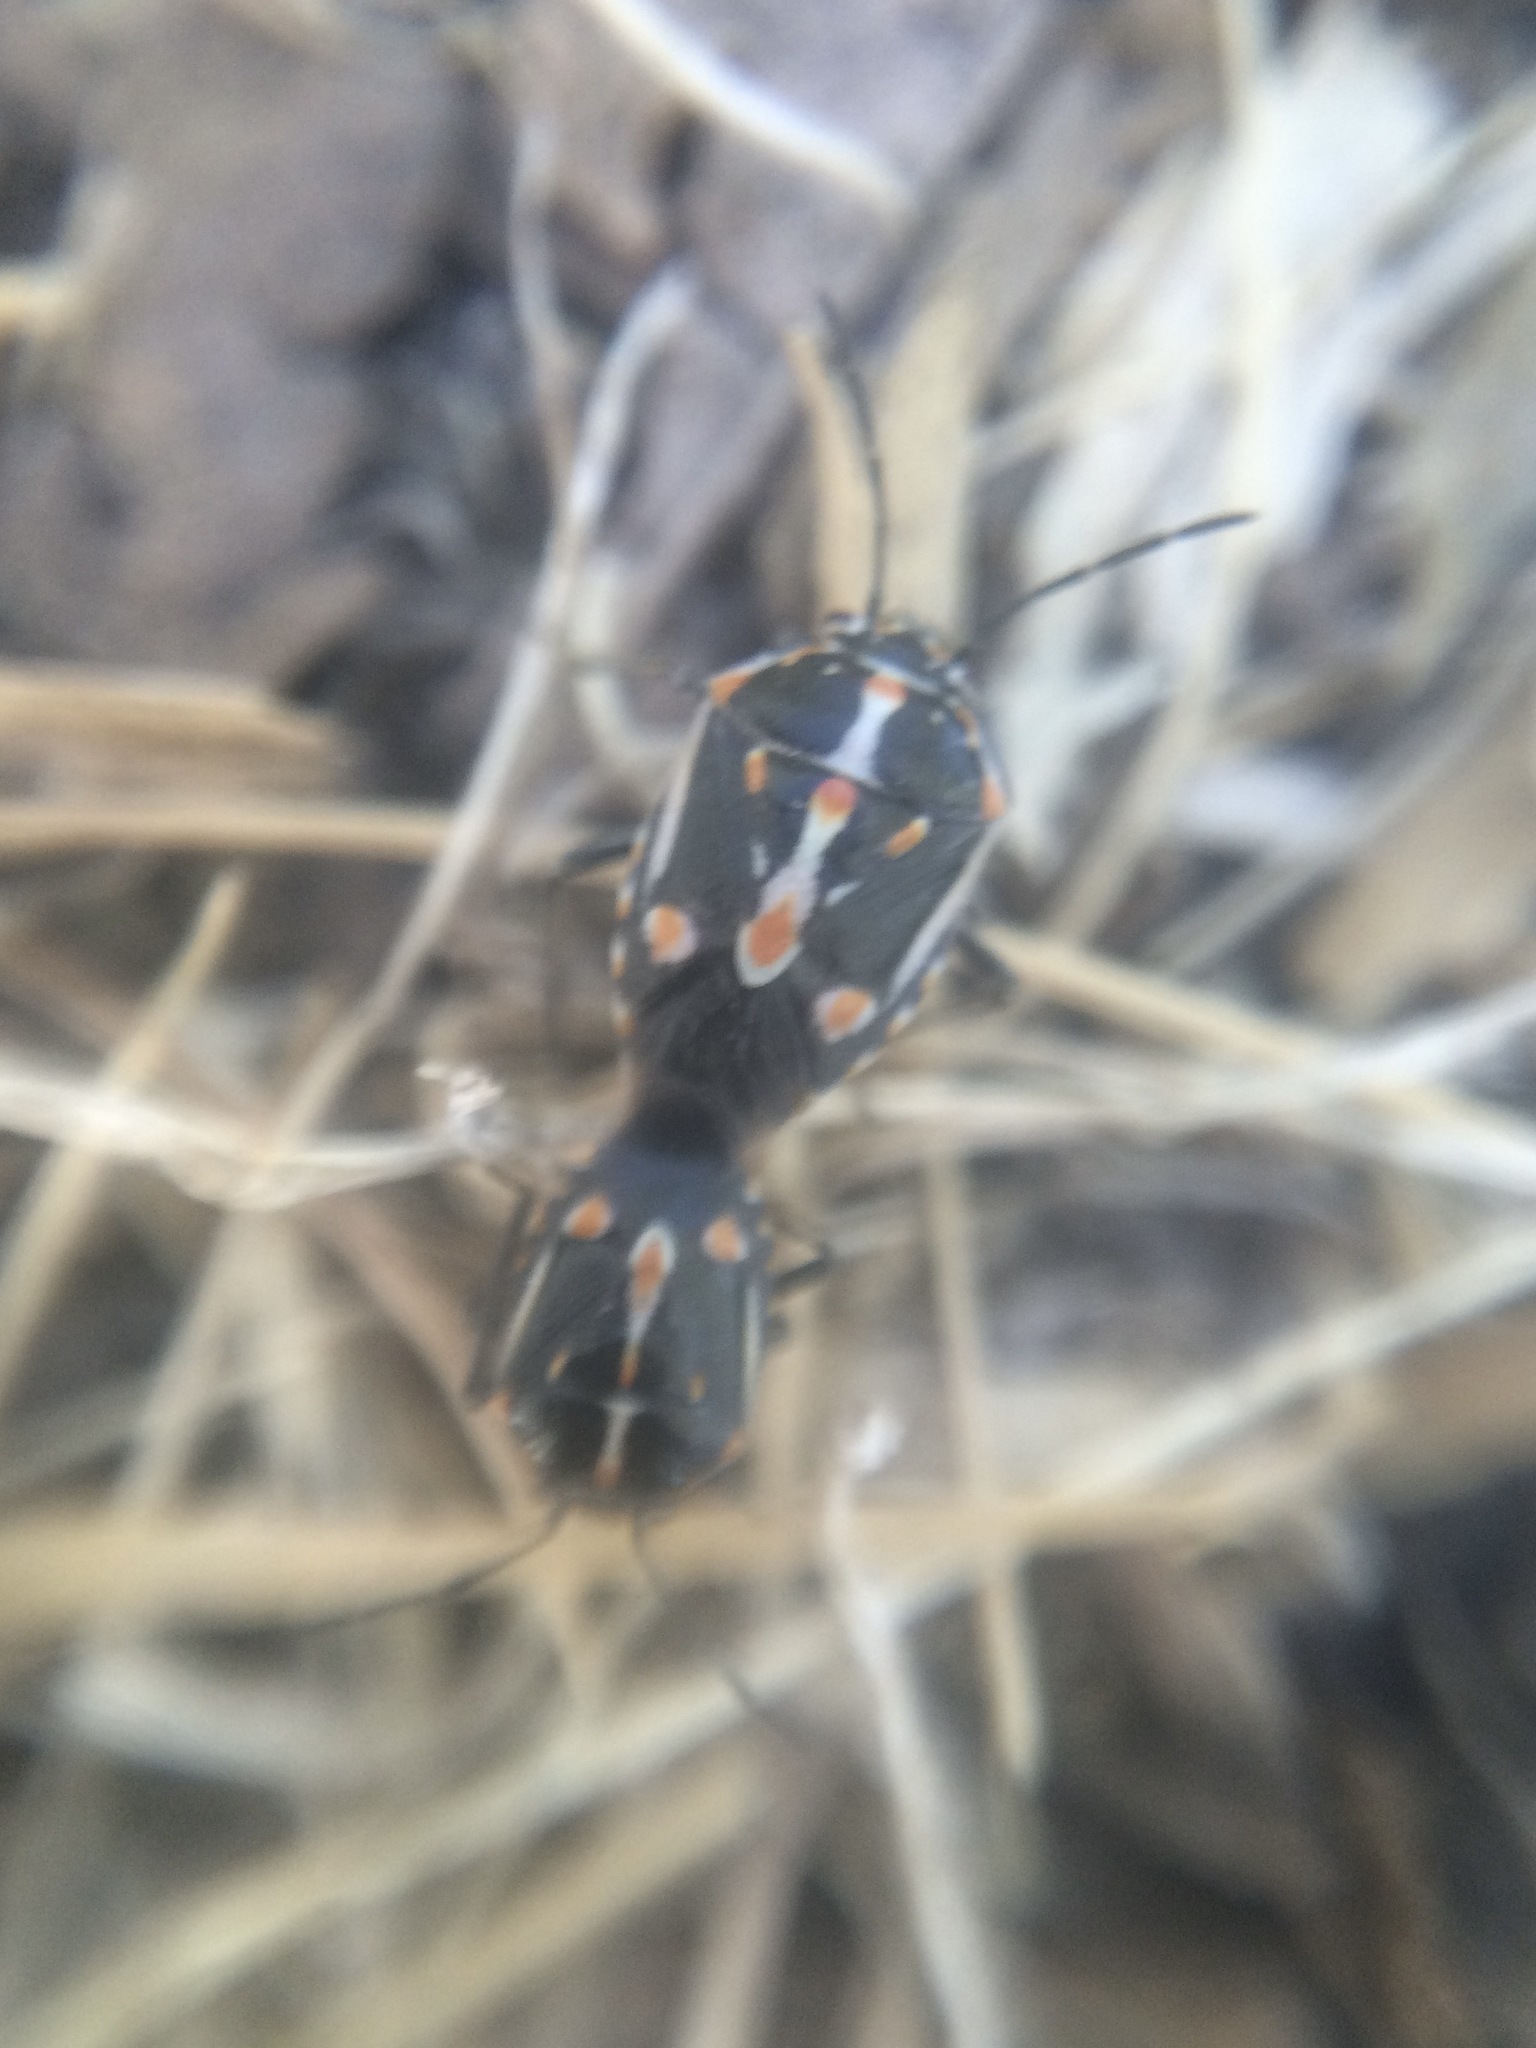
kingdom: Animalia
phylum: Arthropoda
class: Insecta
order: Hemiptera
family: Pentatomidae
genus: Bagrada
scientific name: Bagrada hilaris
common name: Bagrada bug
